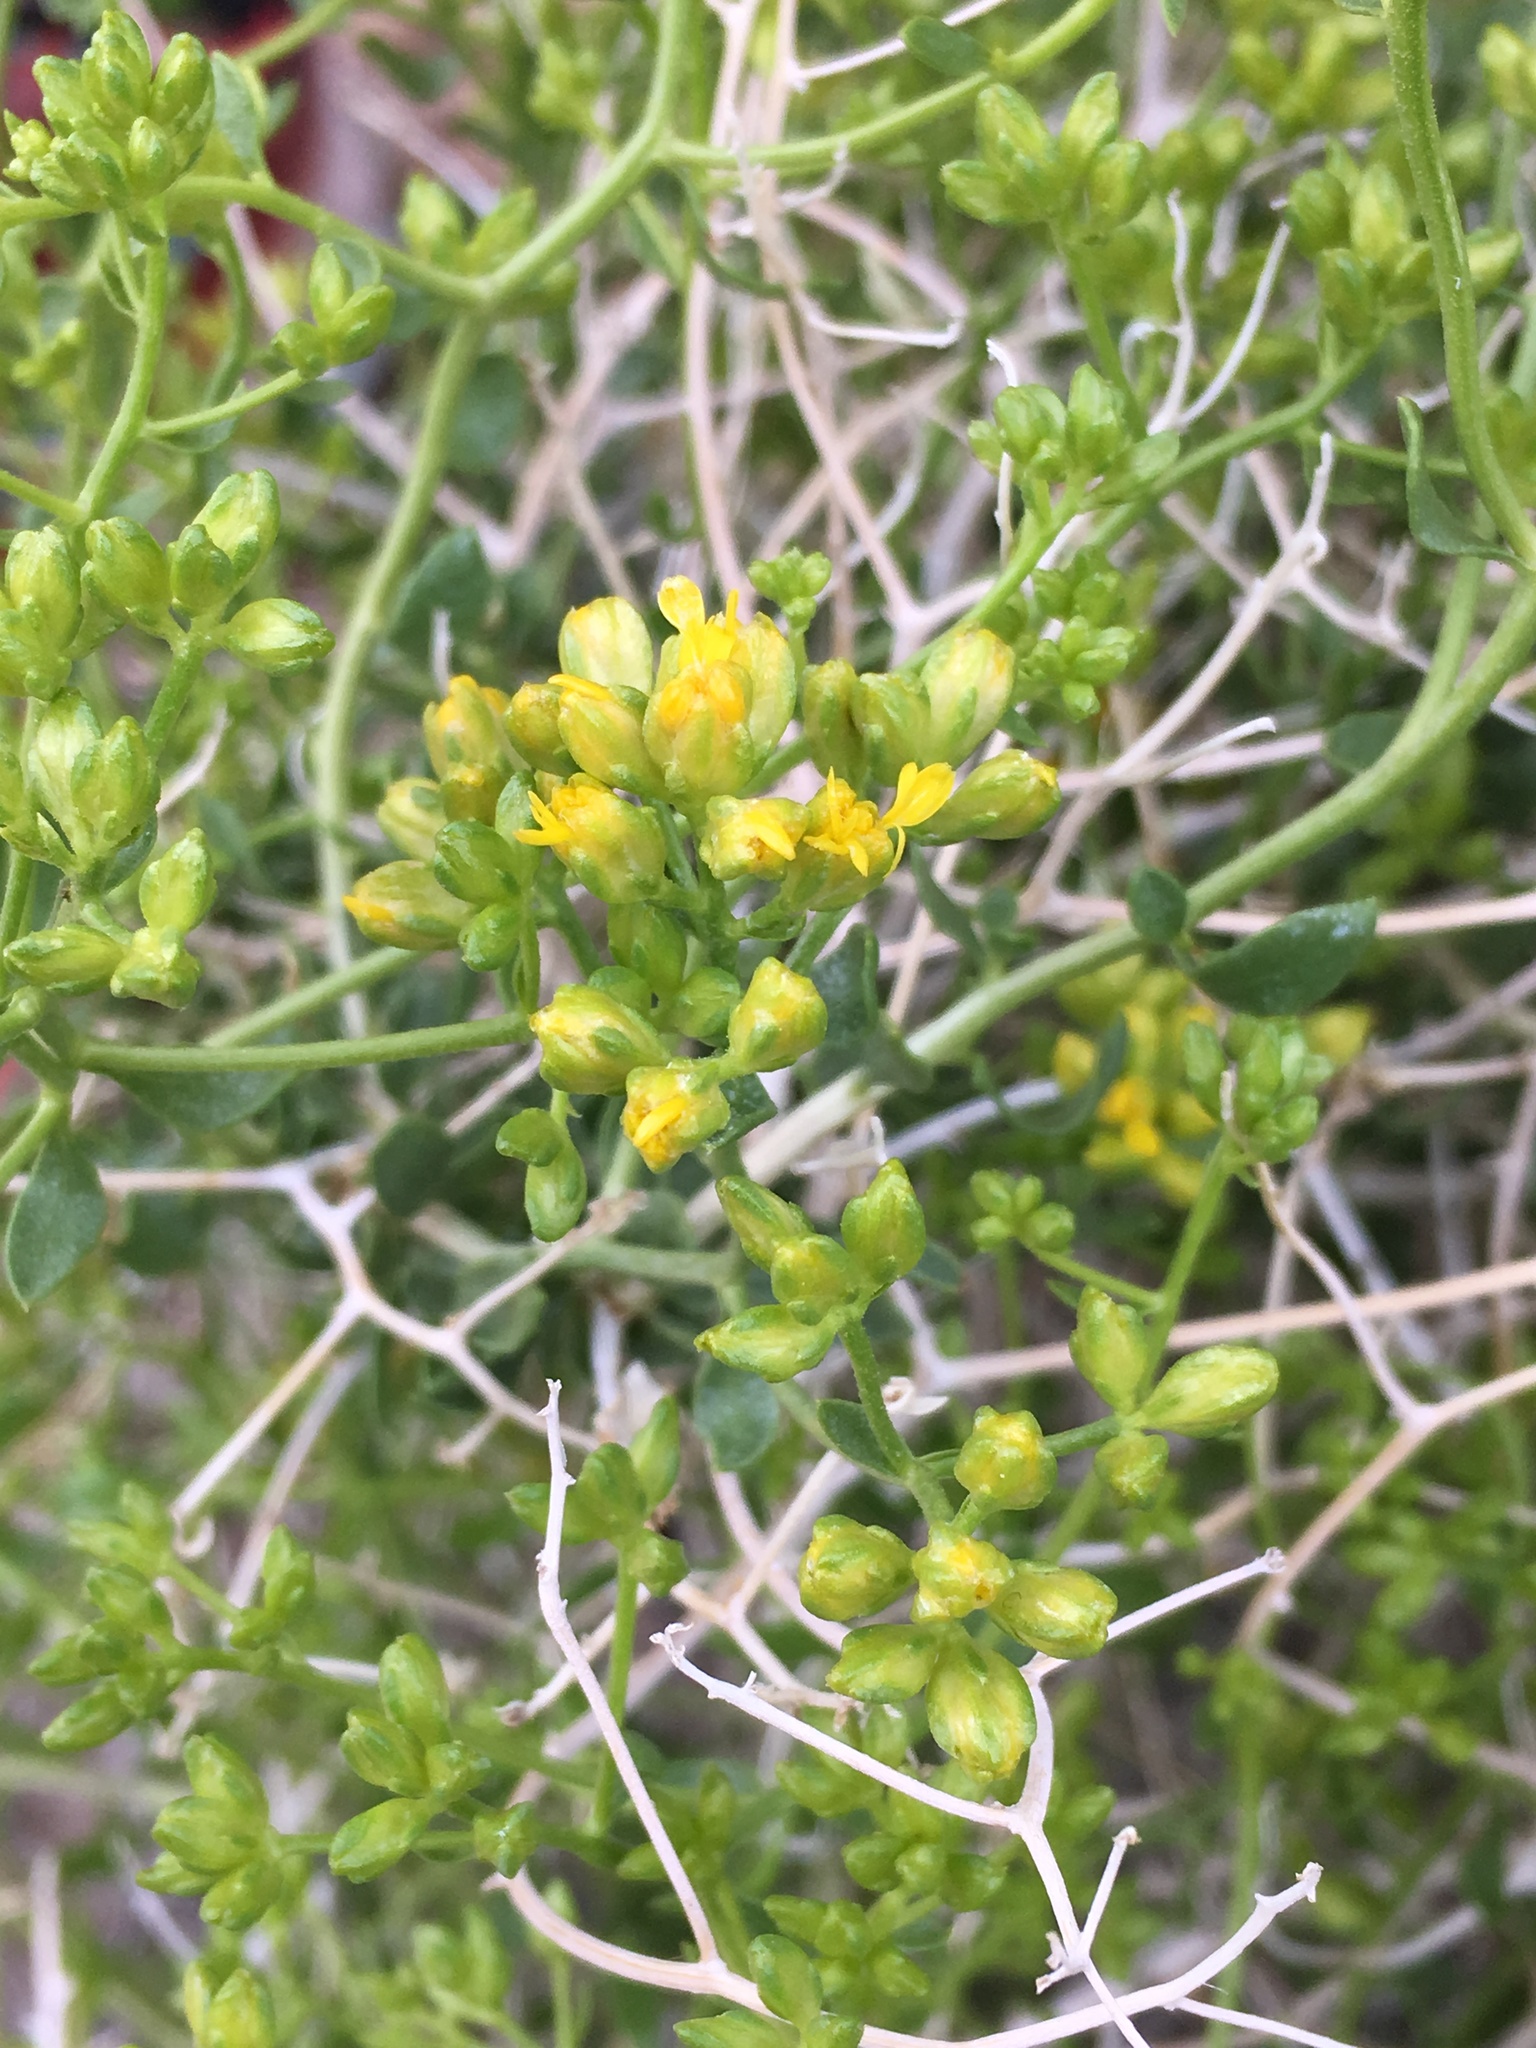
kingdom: Plantae
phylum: Tracheophyta
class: Magnoliopsida
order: Asterales
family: Asteraceae
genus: Amphipappus
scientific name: Amphipappus fremontii
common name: Fremont's chaffbush
